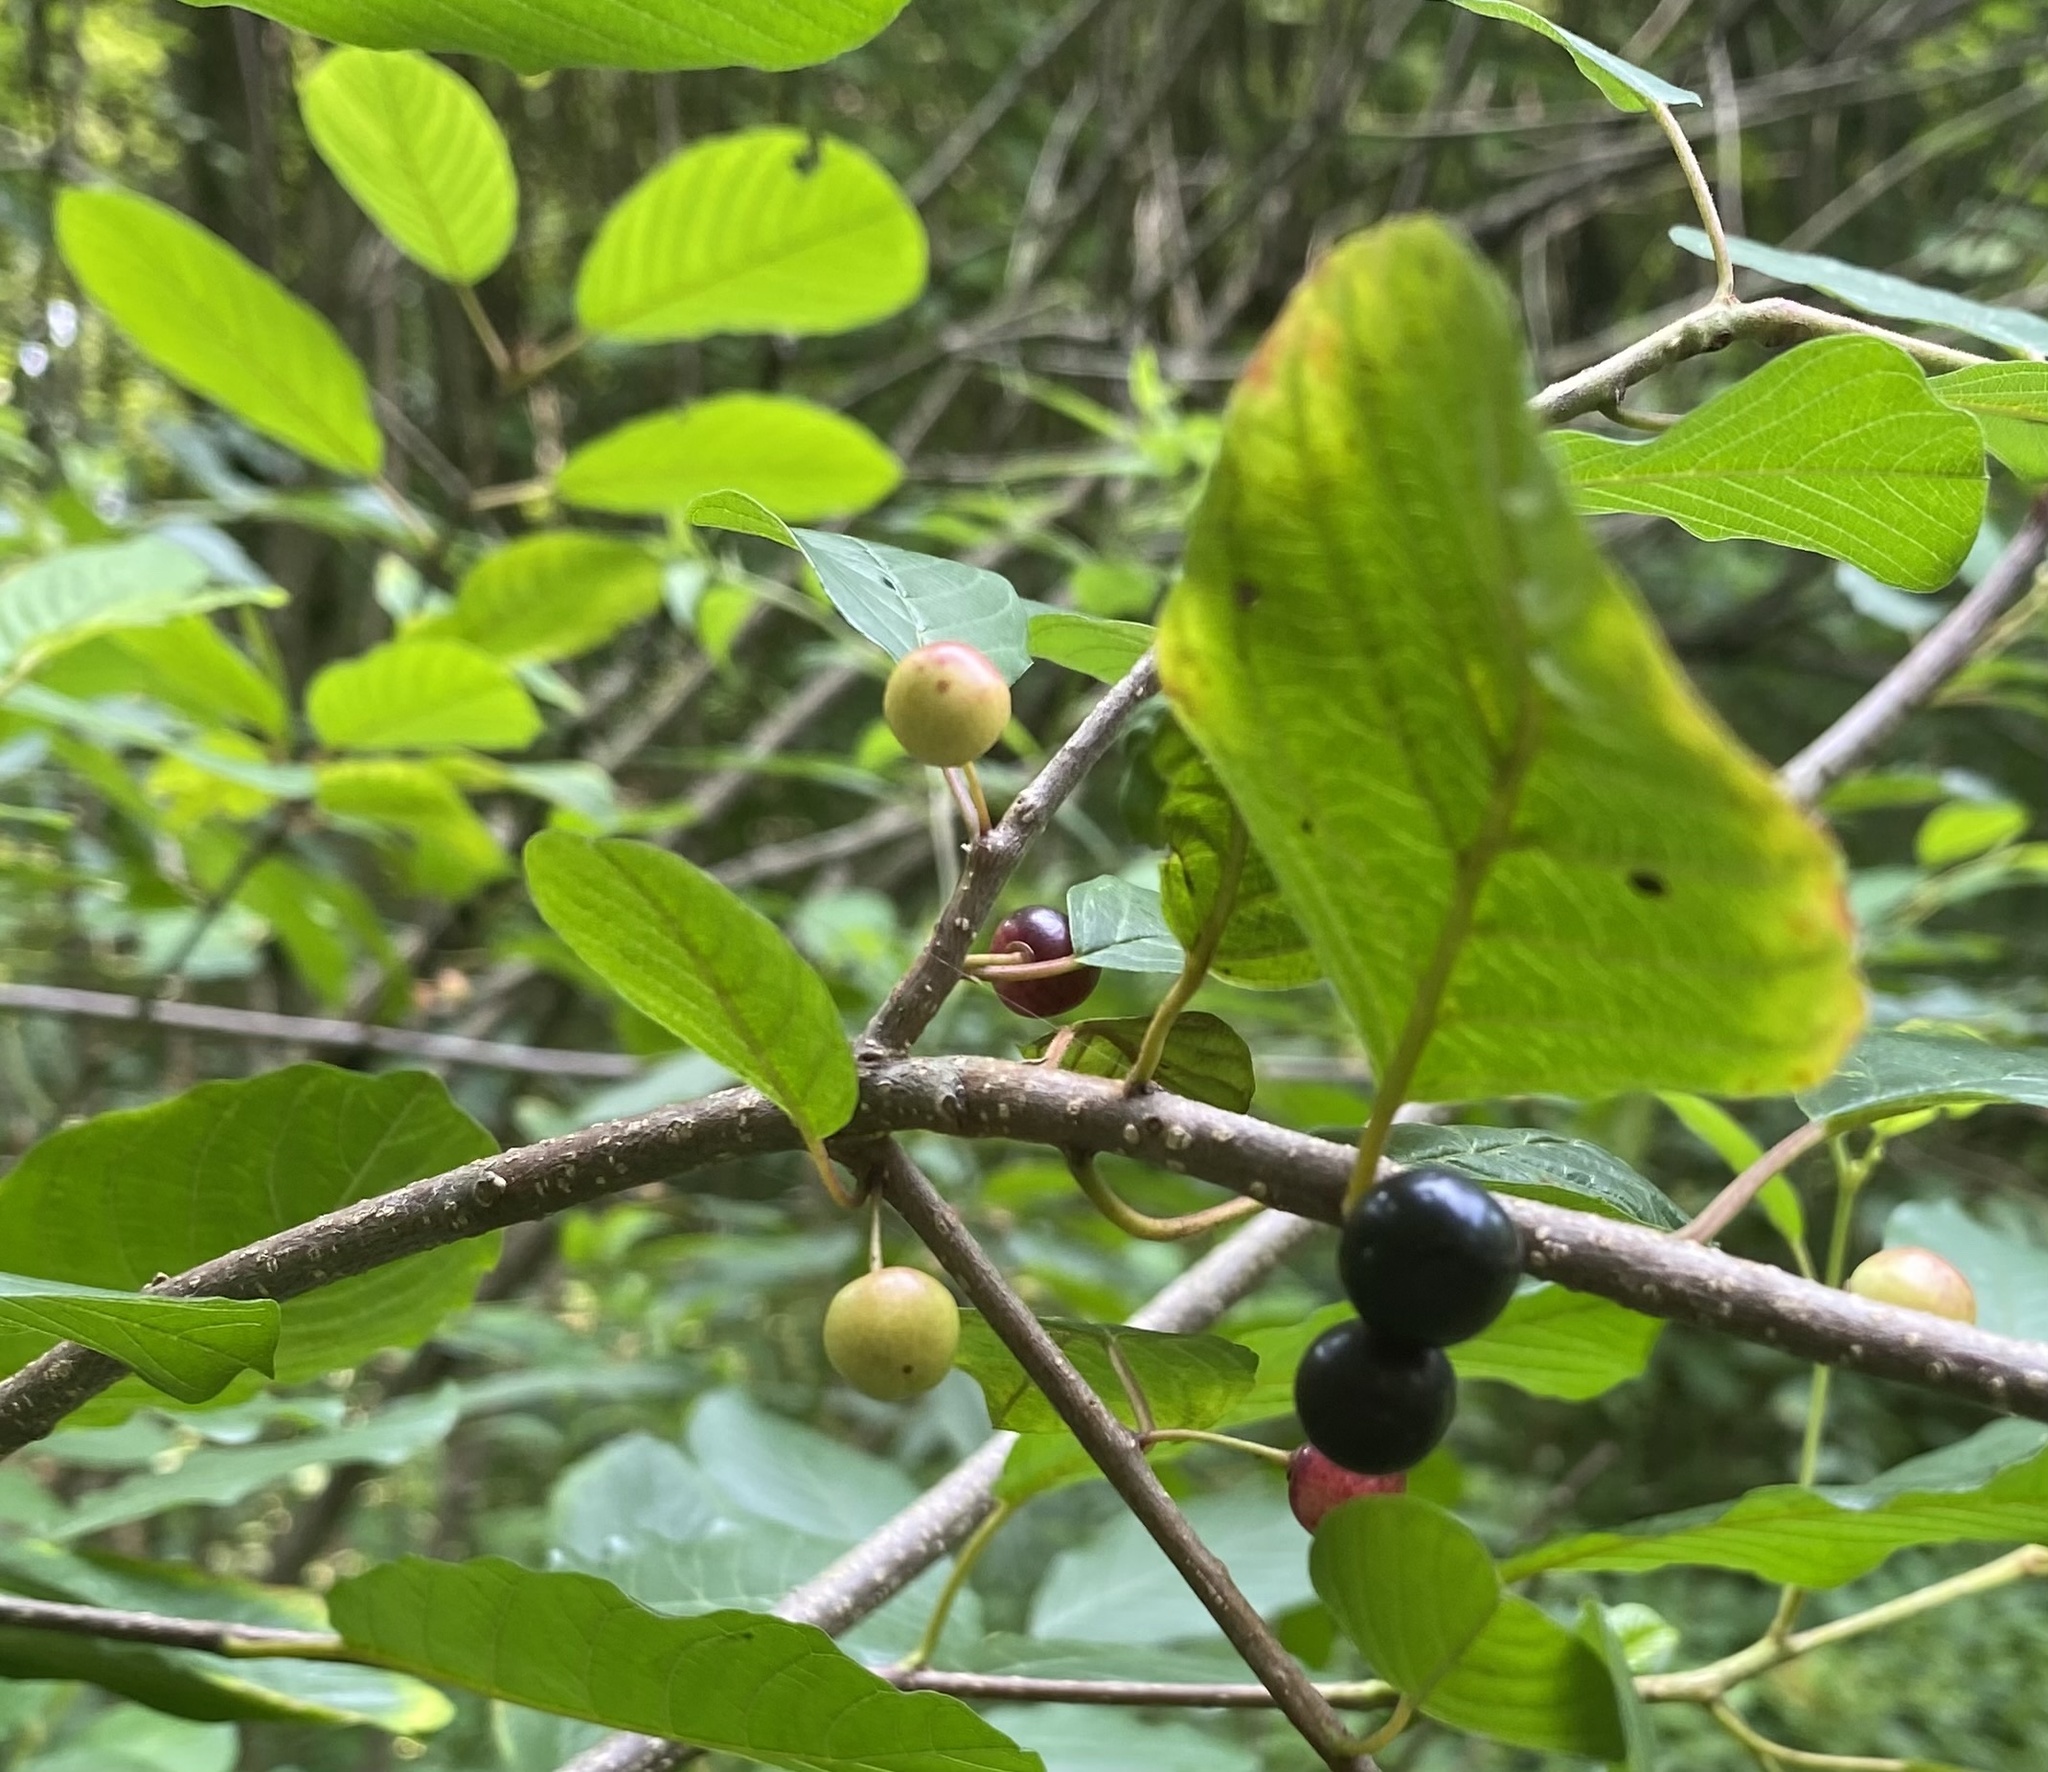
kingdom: Plantae
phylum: Tracheophyta
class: Magnoliopsida
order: Rosales
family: Rhamnaceae
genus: Frangula
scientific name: Frangula alnus
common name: Alder buckthorn
